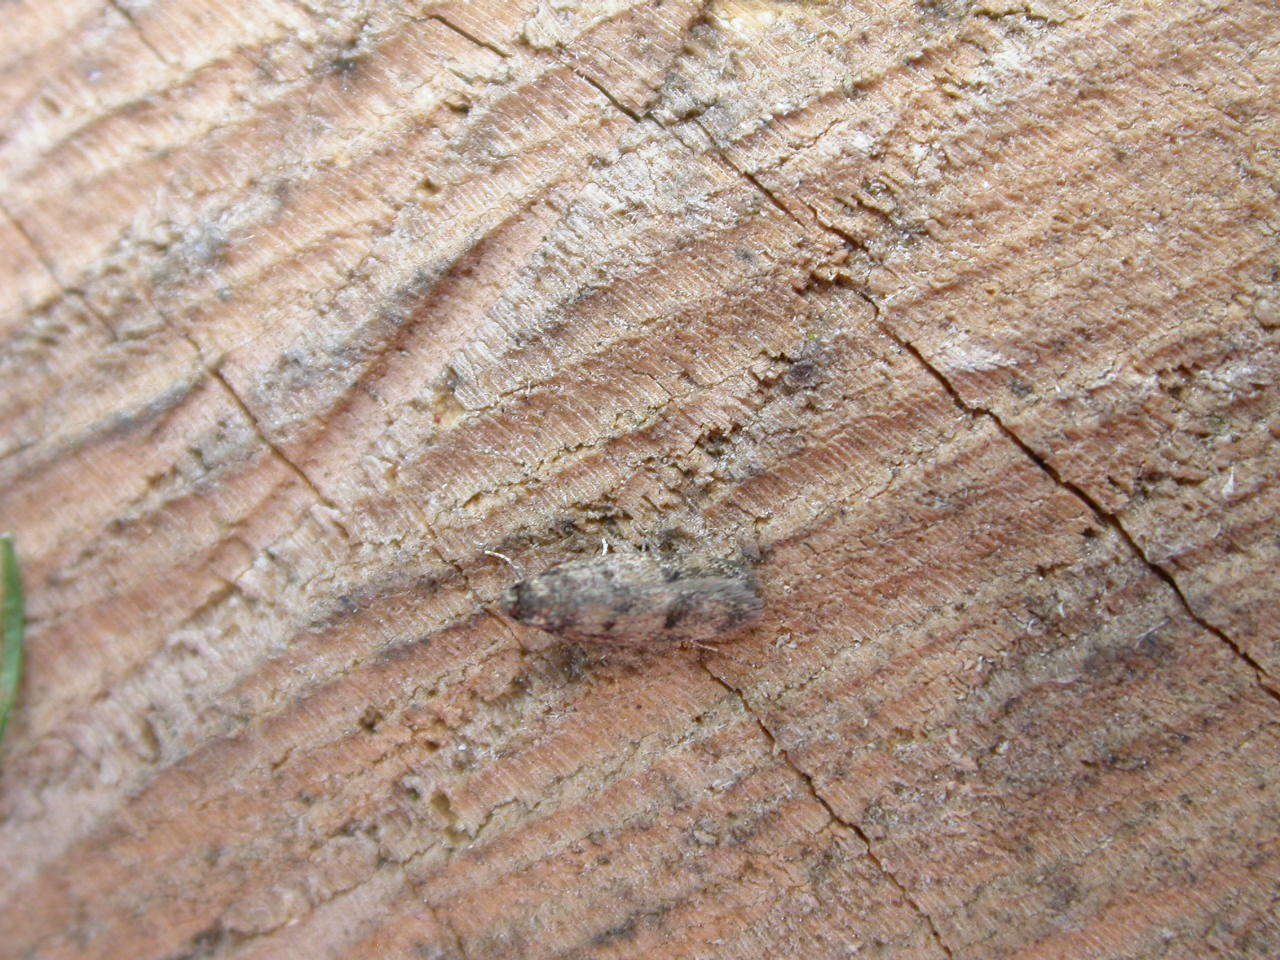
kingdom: Animalia
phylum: Arthropoda
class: Insecta
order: Lepidoptera
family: Oecophoridae
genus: Borkhausenia
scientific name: Borkhausenia fuscescens
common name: Small dingy tubic
